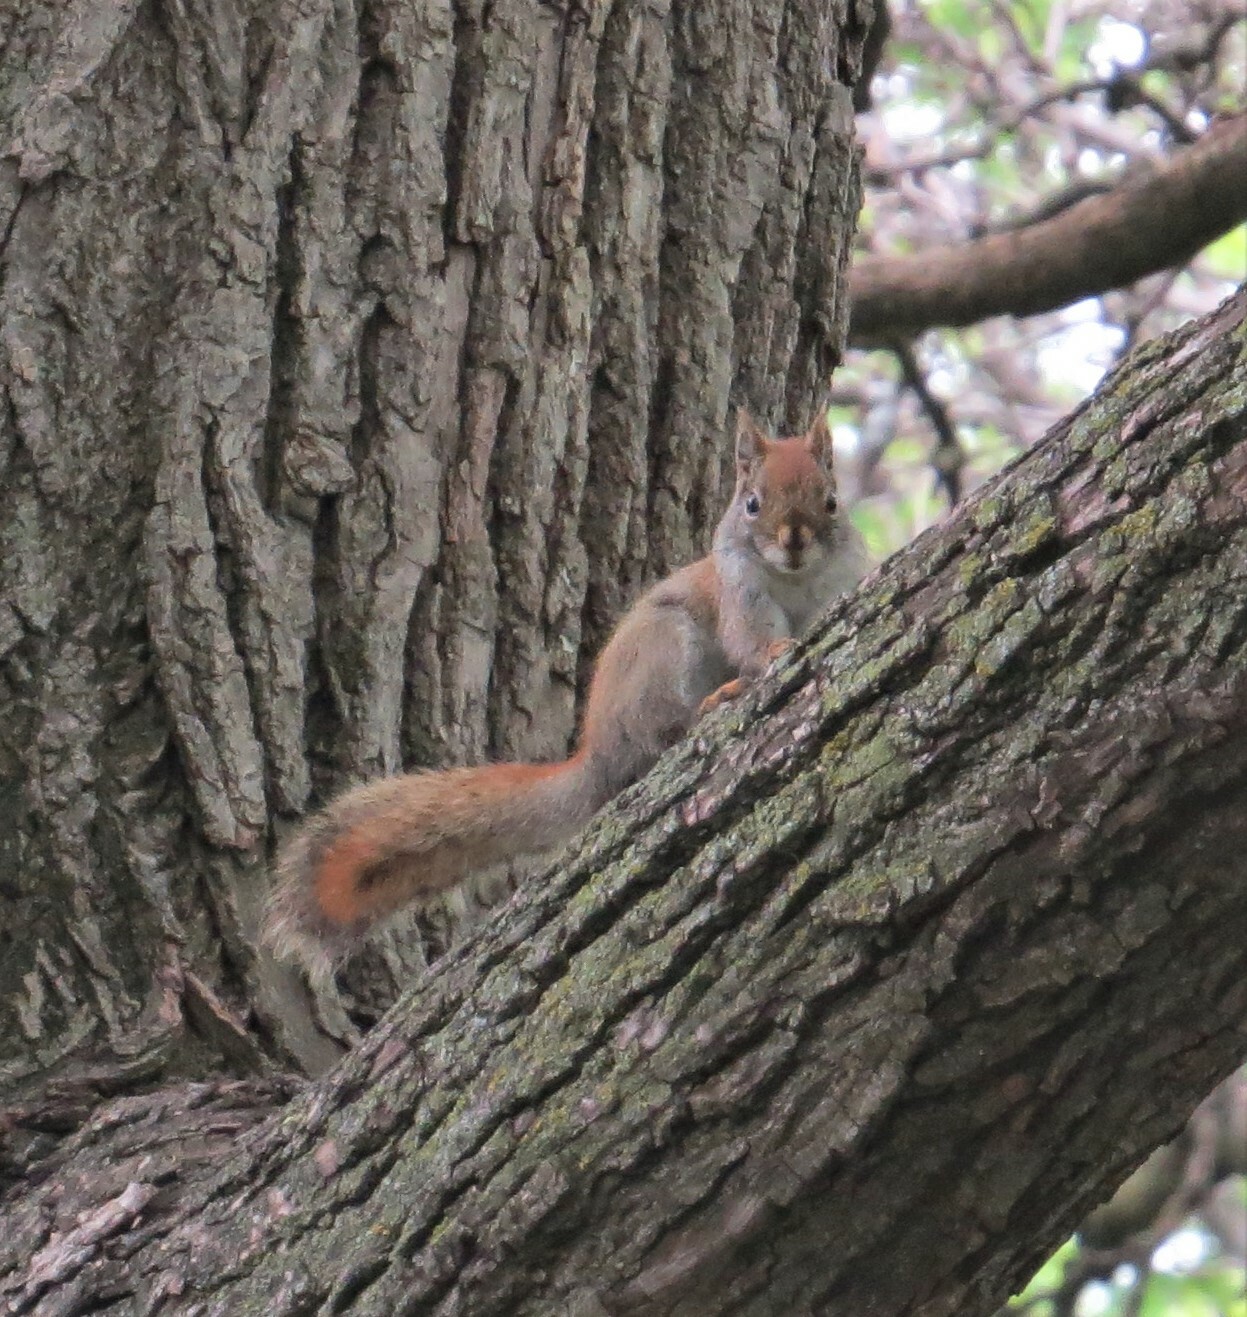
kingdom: Animalia
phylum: Chordata
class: Mammalia
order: Rodentia
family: Sciuridae
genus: Tamiasciurus
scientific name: Tamiasciurus hudsonicus
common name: Red squirrel
